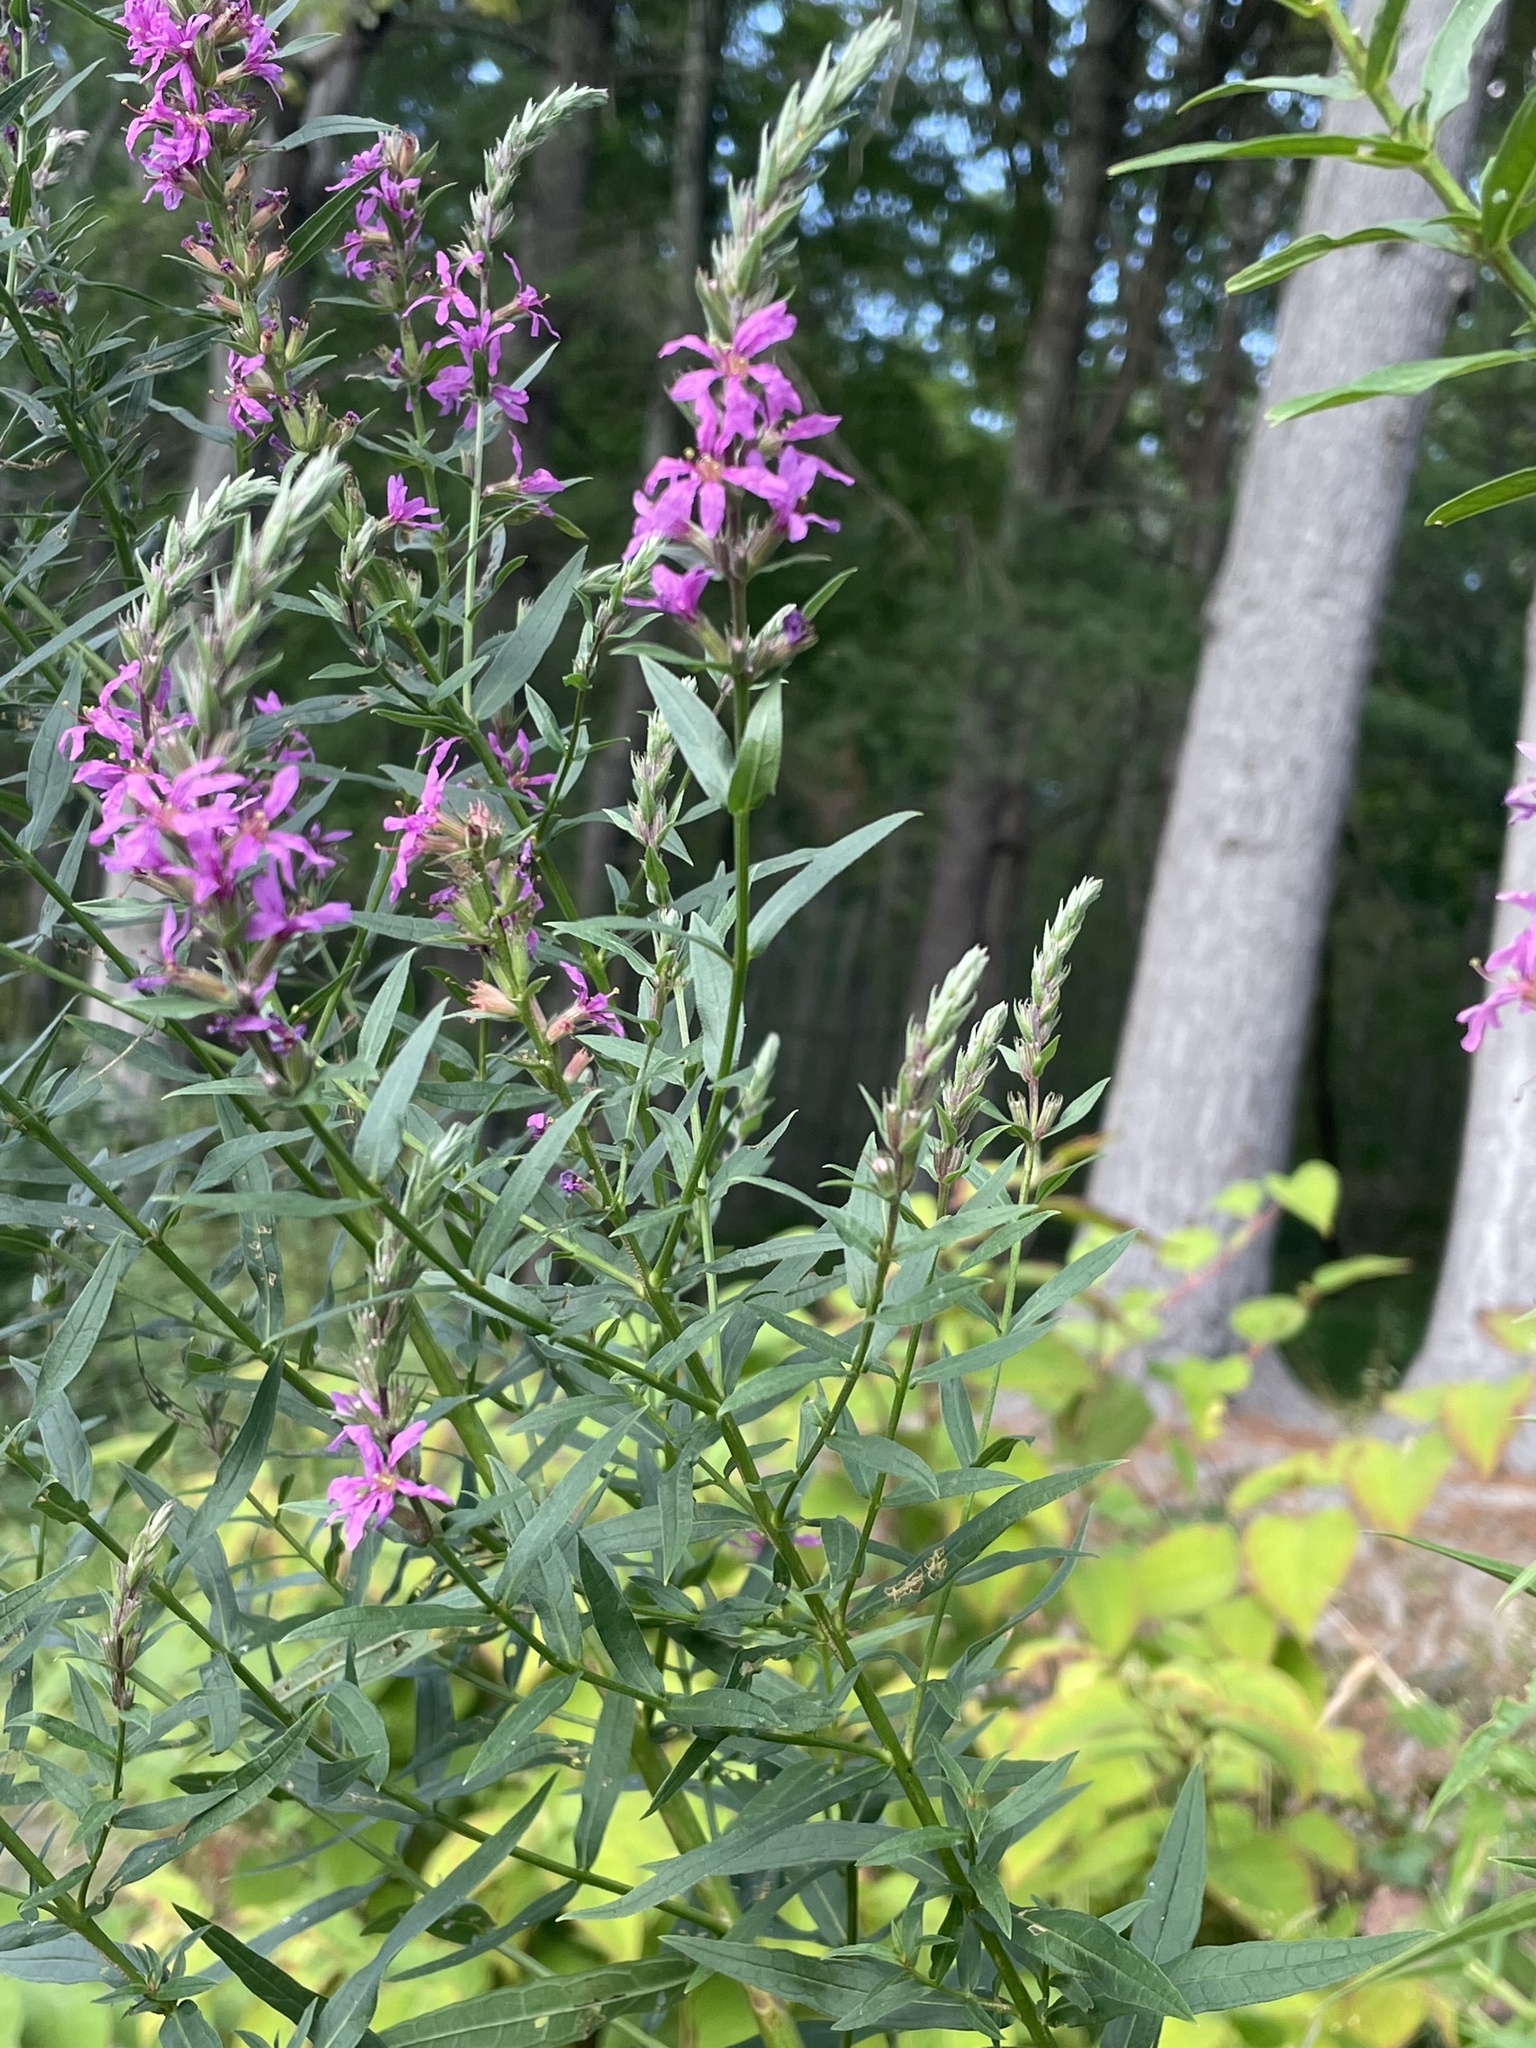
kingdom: Plantae
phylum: Tracheophyta
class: Magnoliopsida
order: Myrtales
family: Lythraceae
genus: Lythrum
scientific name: Lythrum salicaria
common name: Purple loosestrife
